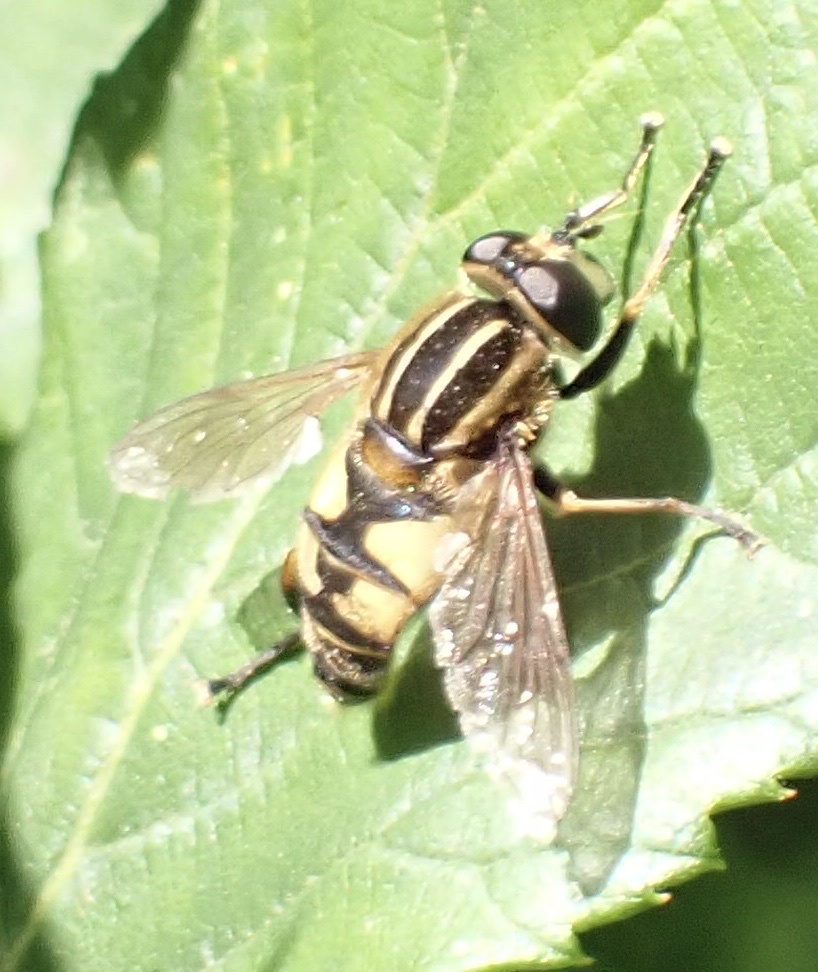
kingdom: Animalia
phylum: Arthropoda
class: Insecta
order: Diptera
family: Syrphidae
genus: Helophilus
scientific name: Helophilus pendulus
